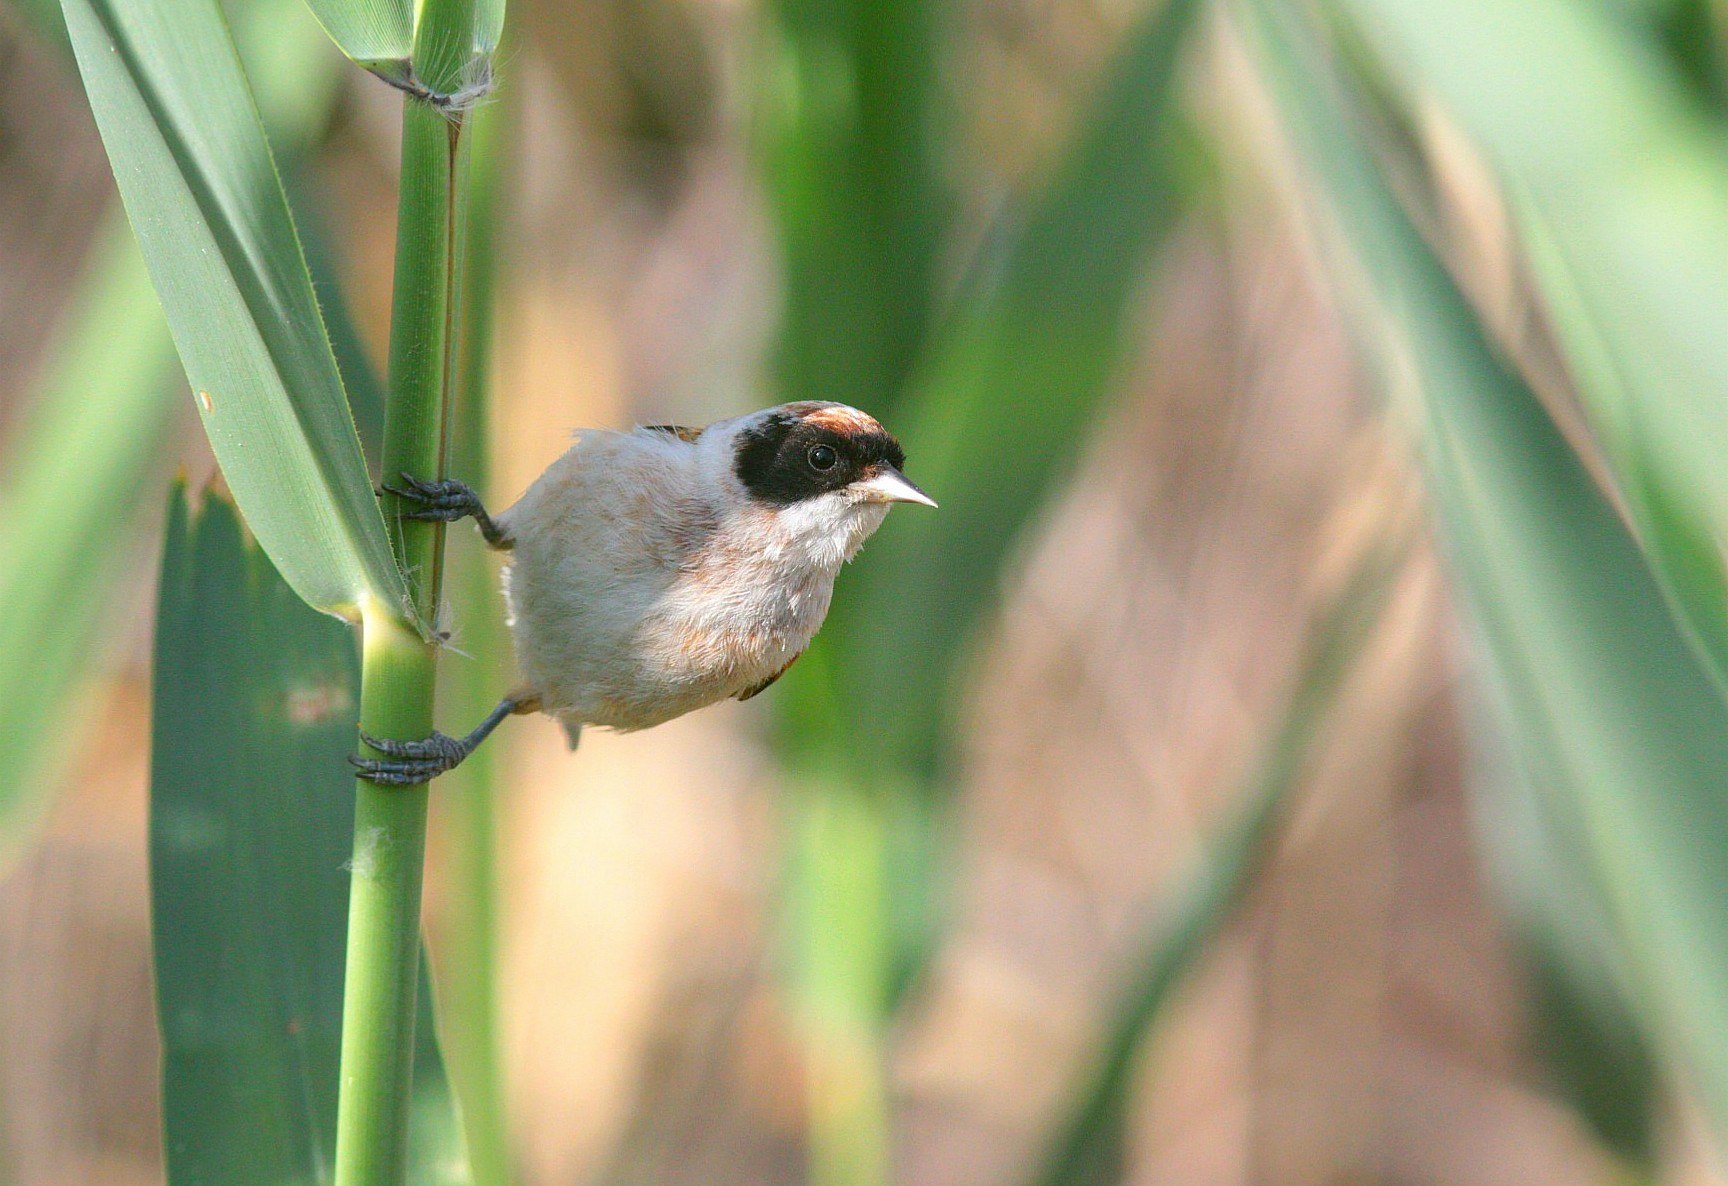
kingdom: Animalia
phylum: Chordata
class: Aves
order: Passeriformes
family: Remizidae
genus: Remiz
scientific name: Remiz pendulinus
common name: Eurasian penduline tit
